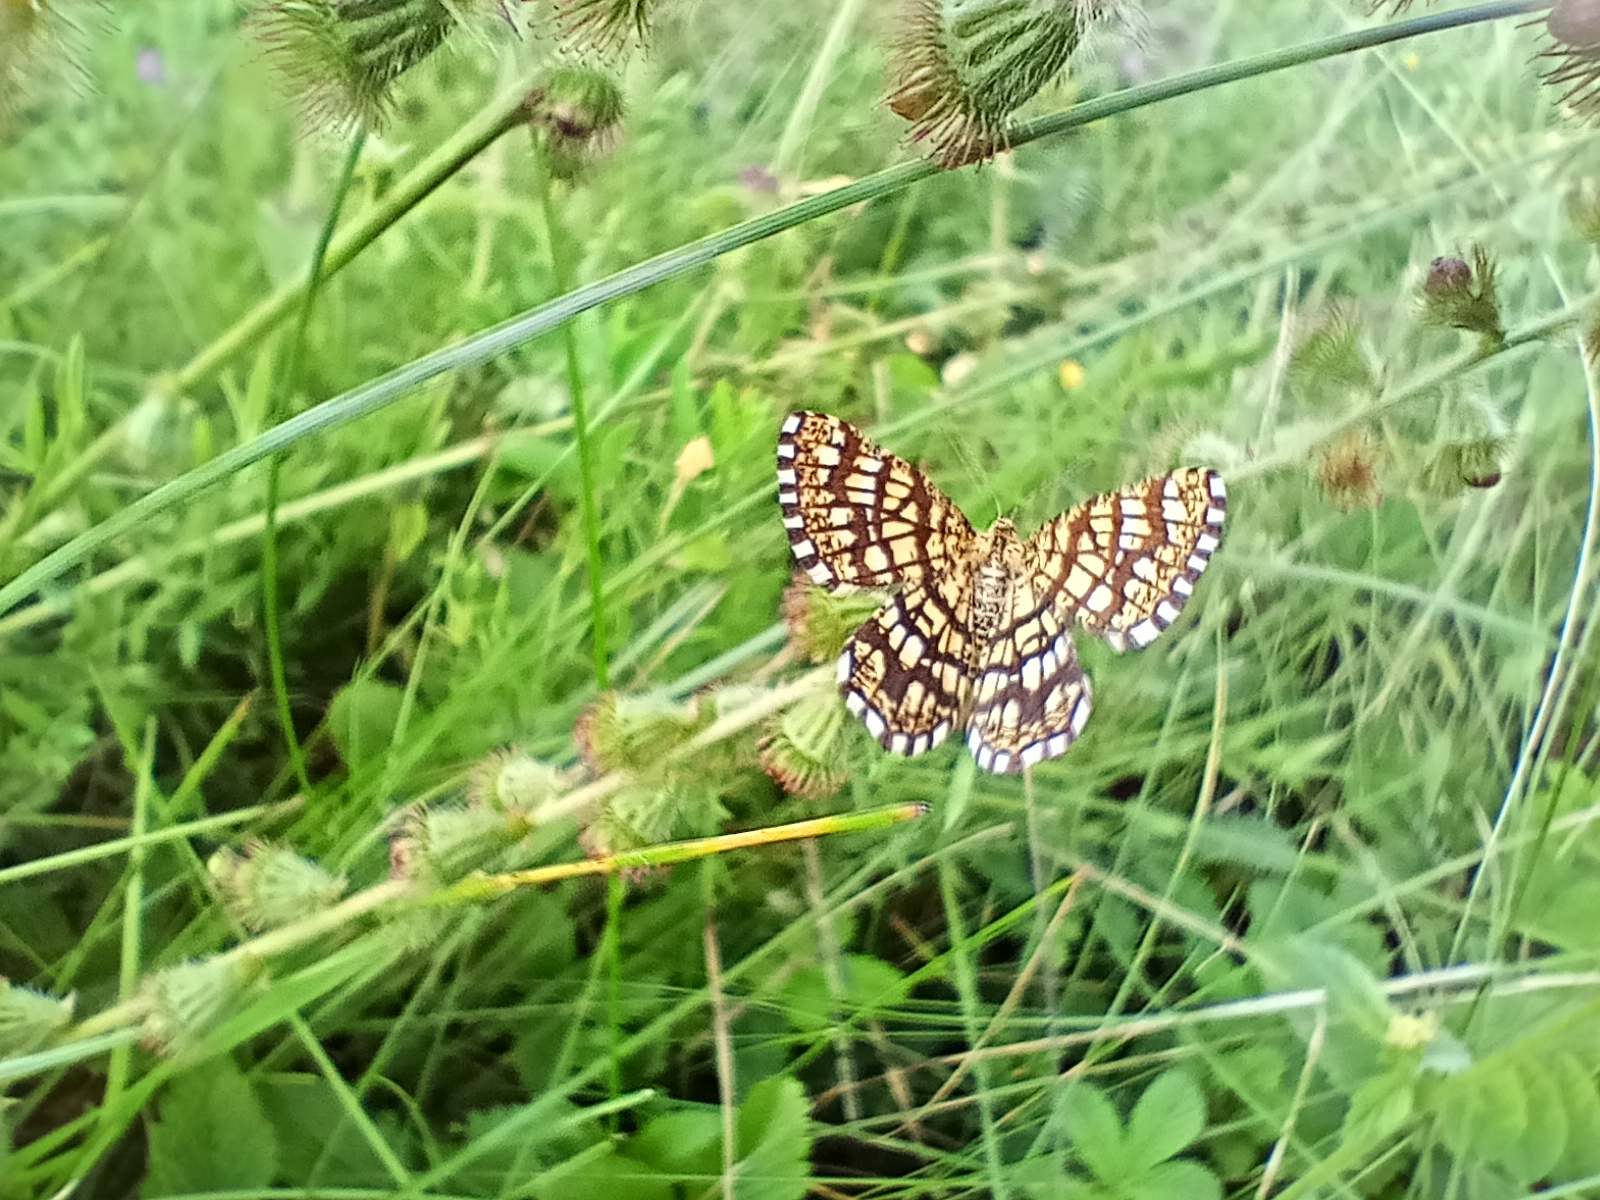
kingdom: Animalia
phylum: Arthropoda
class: Insecta
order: Lepidoptera
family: Geometridae
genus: Chiasmia
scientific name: Chiasmia clathrata
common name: Latticed heath
